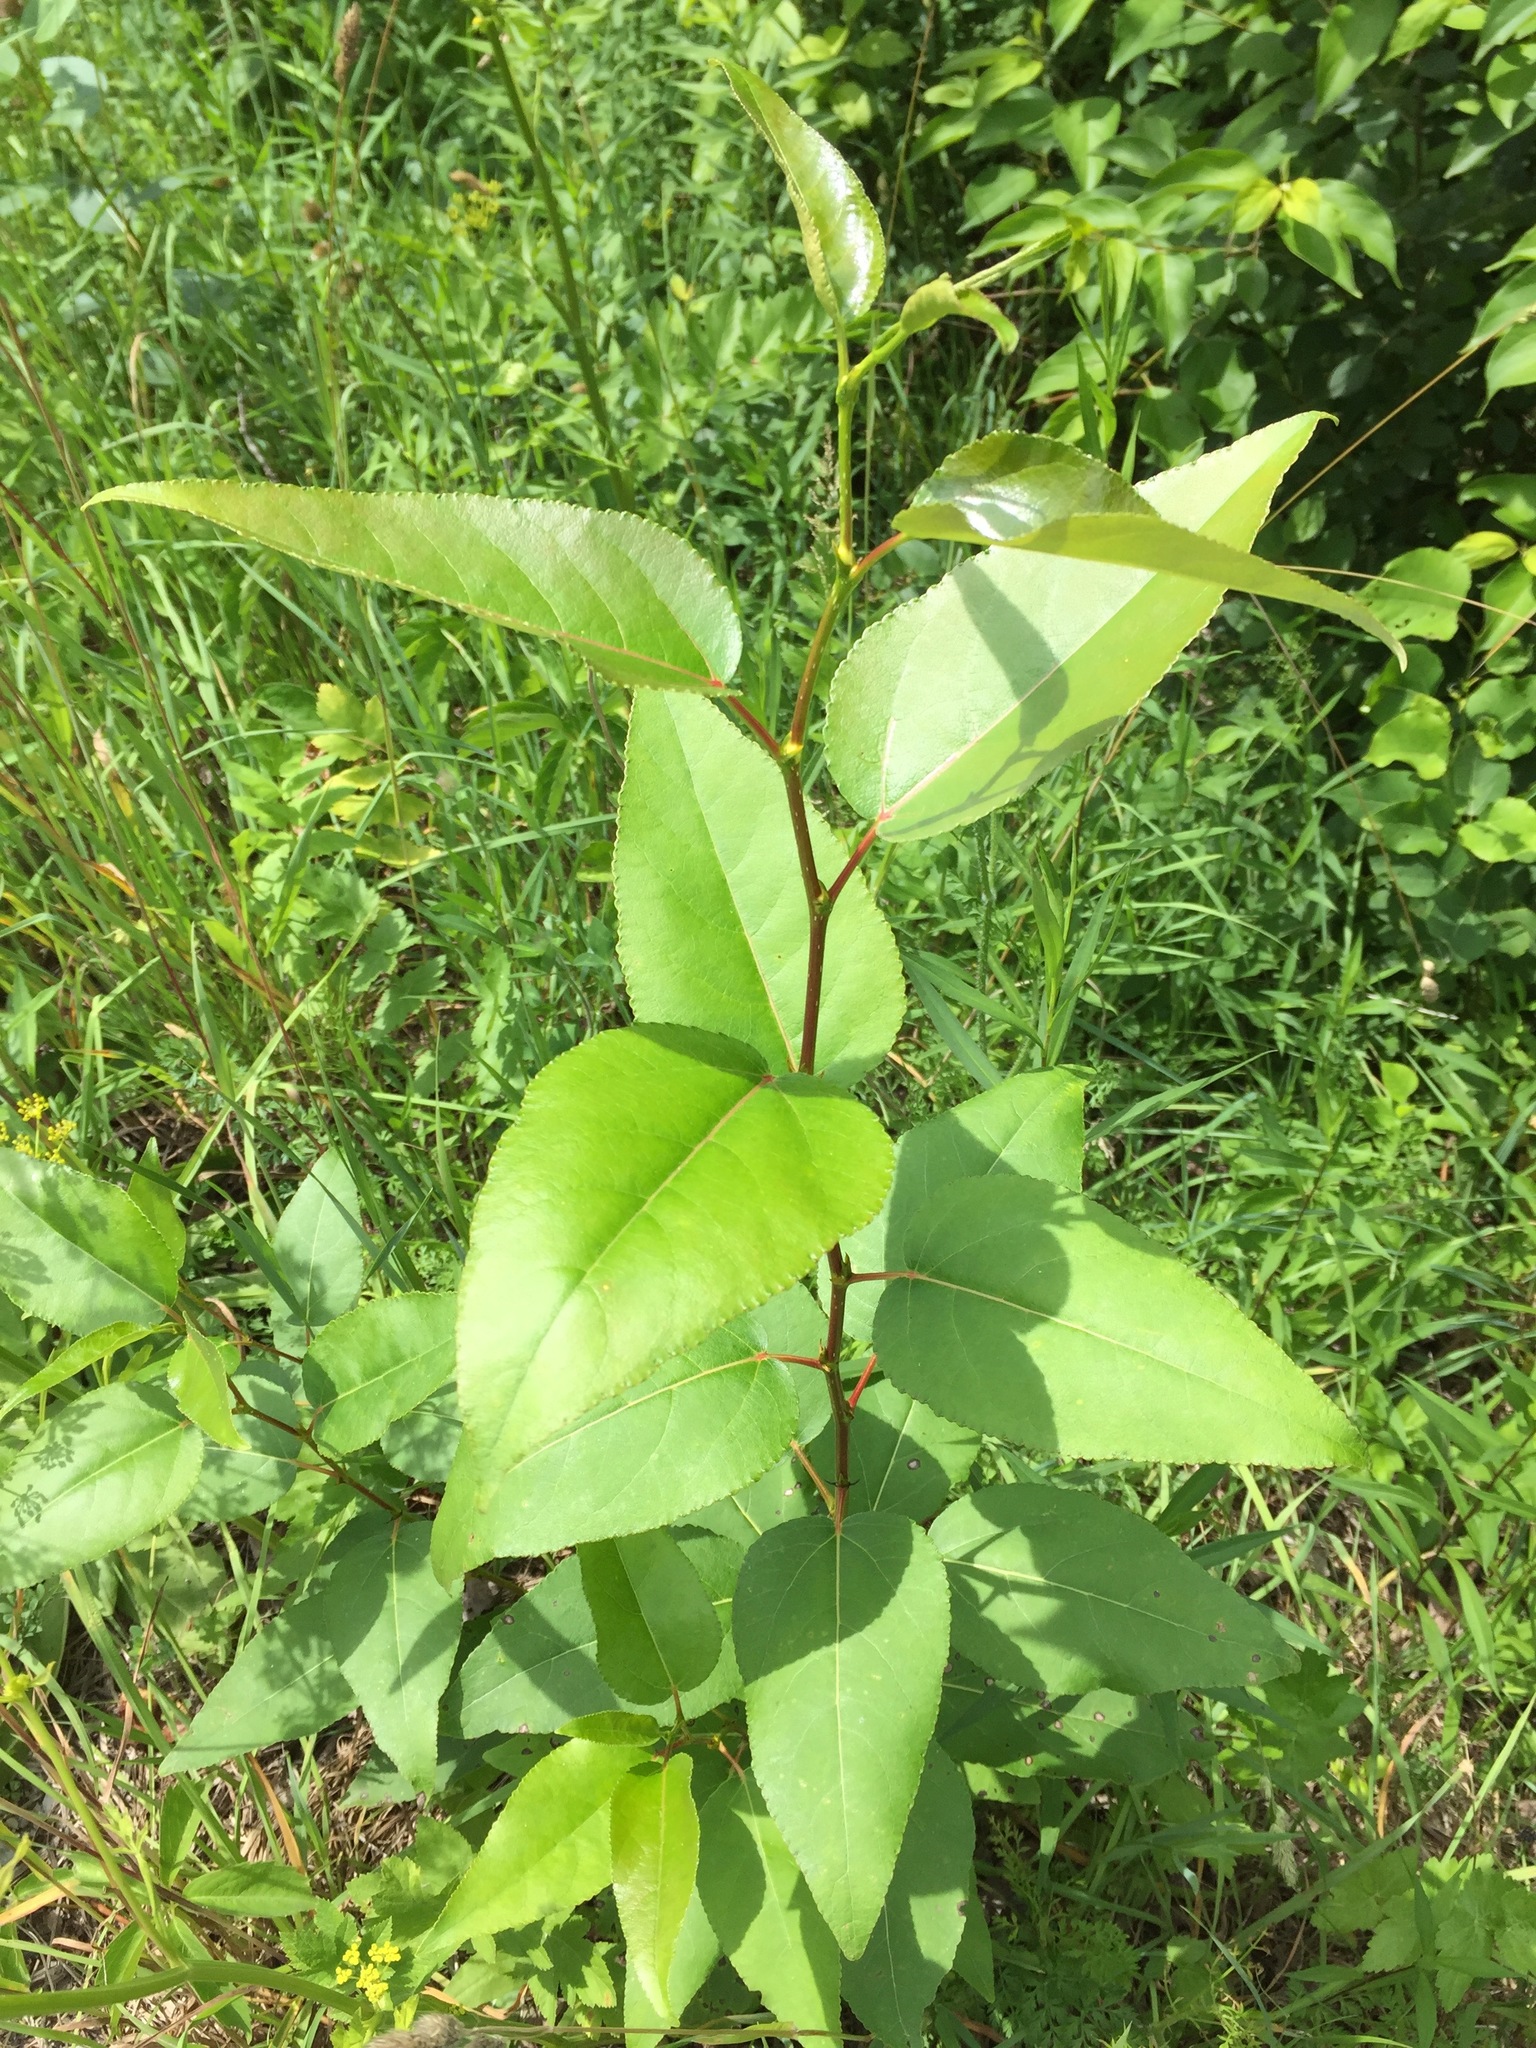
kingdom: Plantae
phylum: Tracheophyta
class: Magnoliopsida
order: Malpighiales
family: Salicaceae
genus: Populus
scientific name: Populus balsamifera
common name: Balsam poplar
